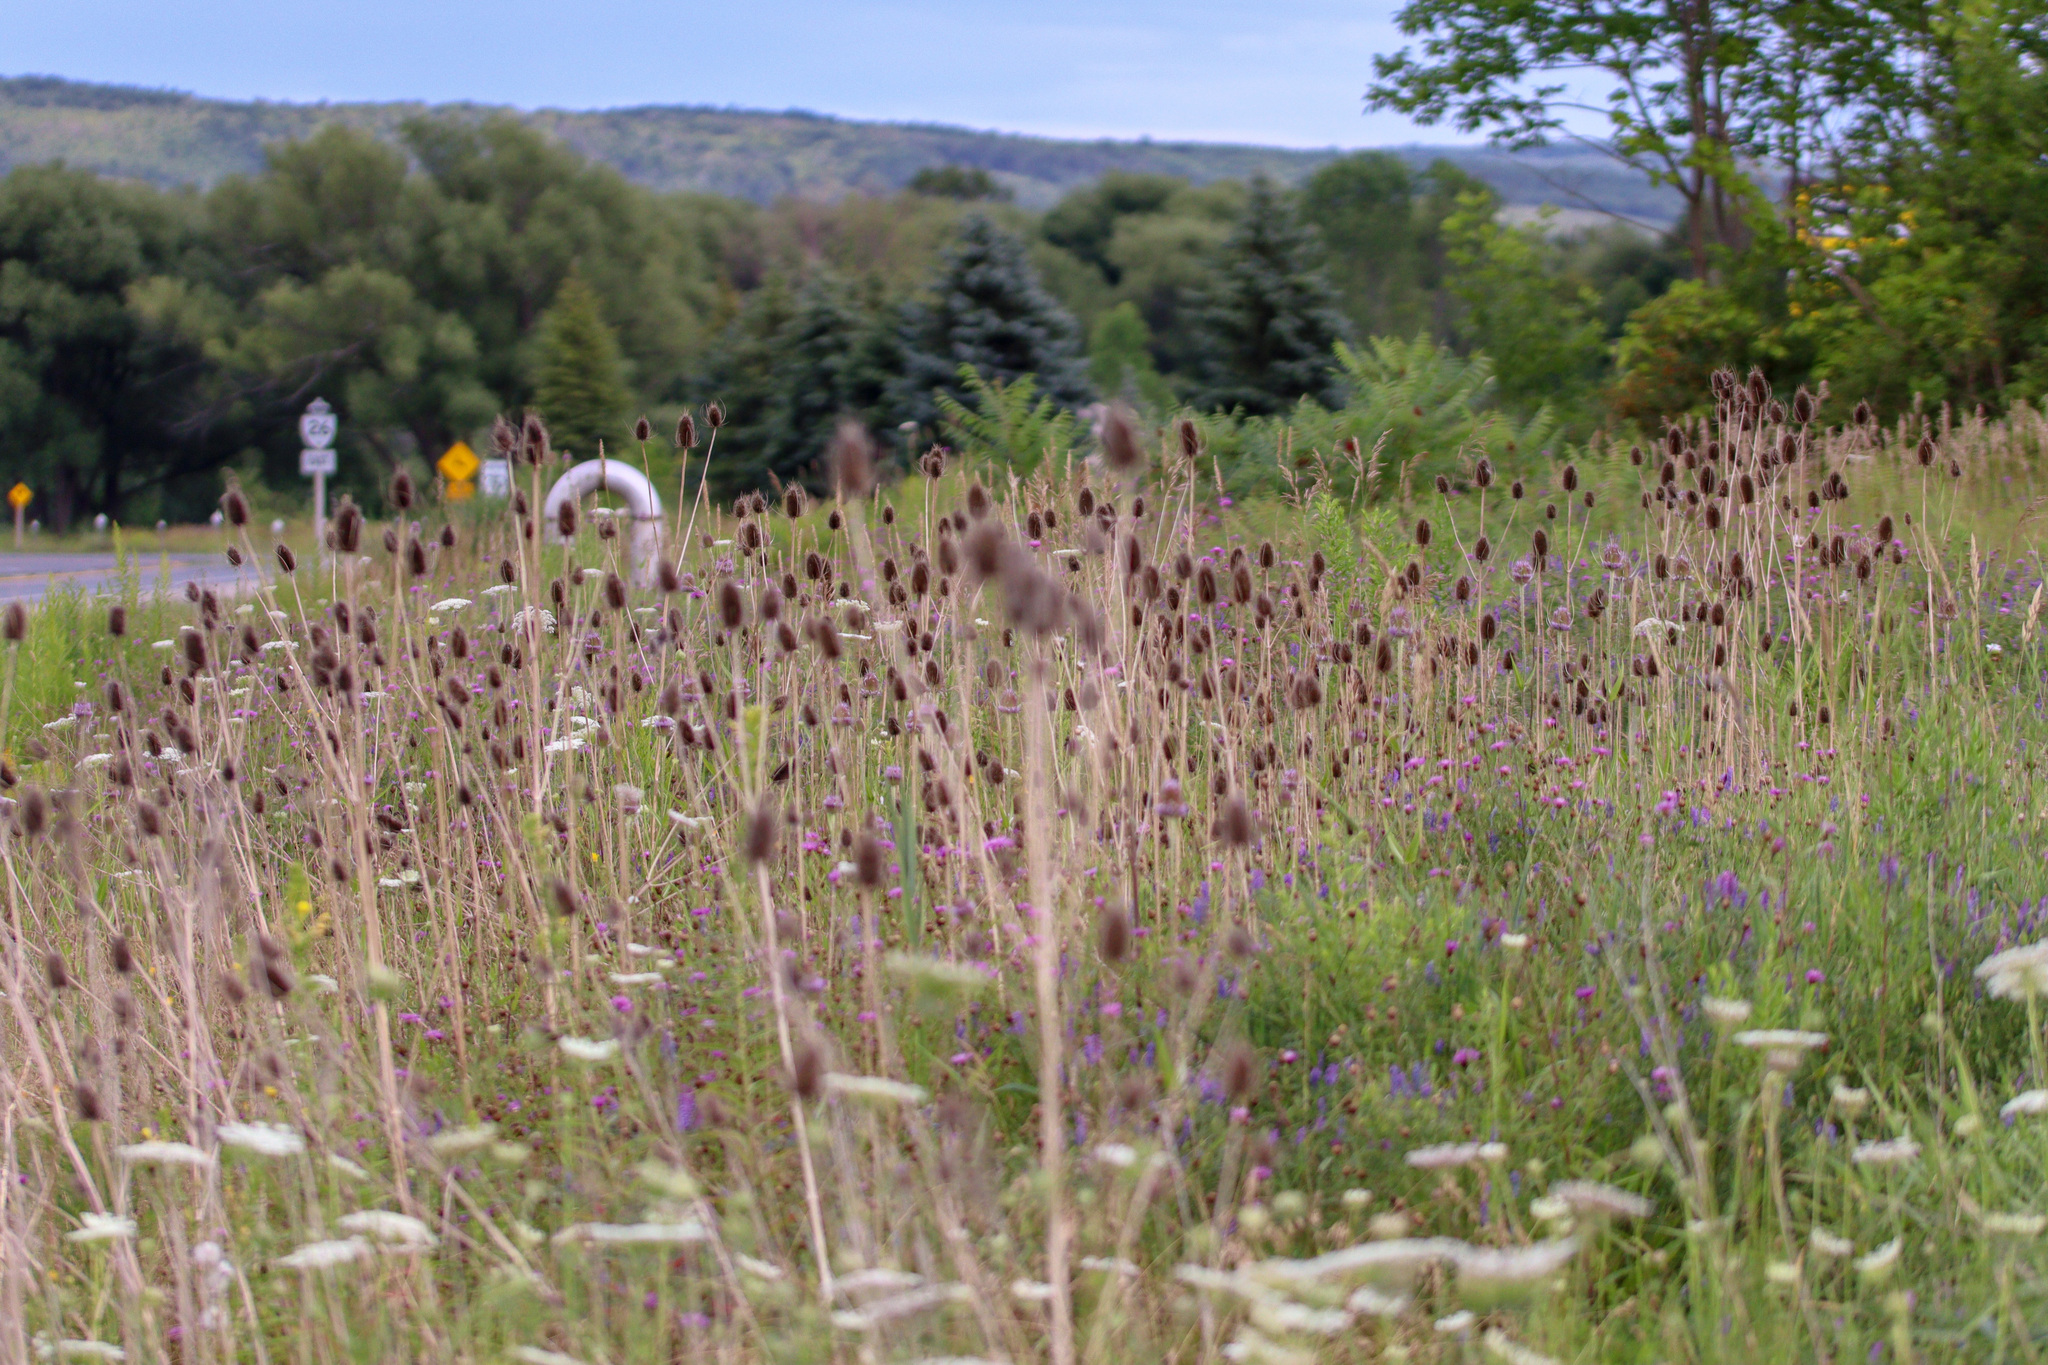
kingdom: Plantae
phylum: Tracheophyta
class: Magnoliopsida
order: Dipsacales
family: Caprifoliaceae
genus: Dipsacus
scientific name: Dipsacus fullonum
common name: Teasel
